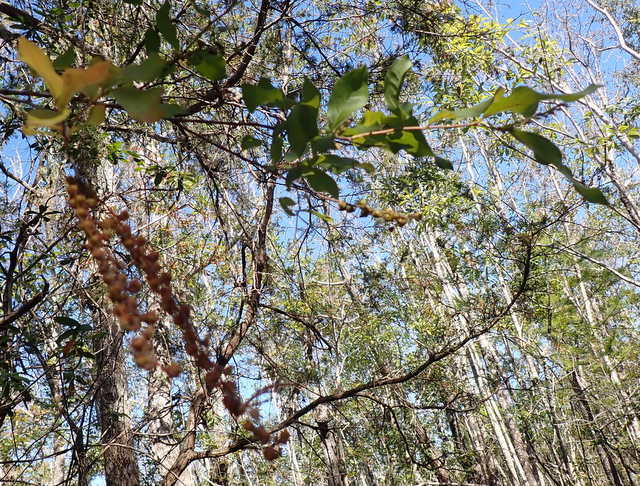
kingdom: Plantae
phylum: Tracheophyta
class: Magnoliopsida
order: Ericales
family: Ericaceae
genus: Eubotrys
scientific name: Eubotrys racemosa
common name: Fetterbush
